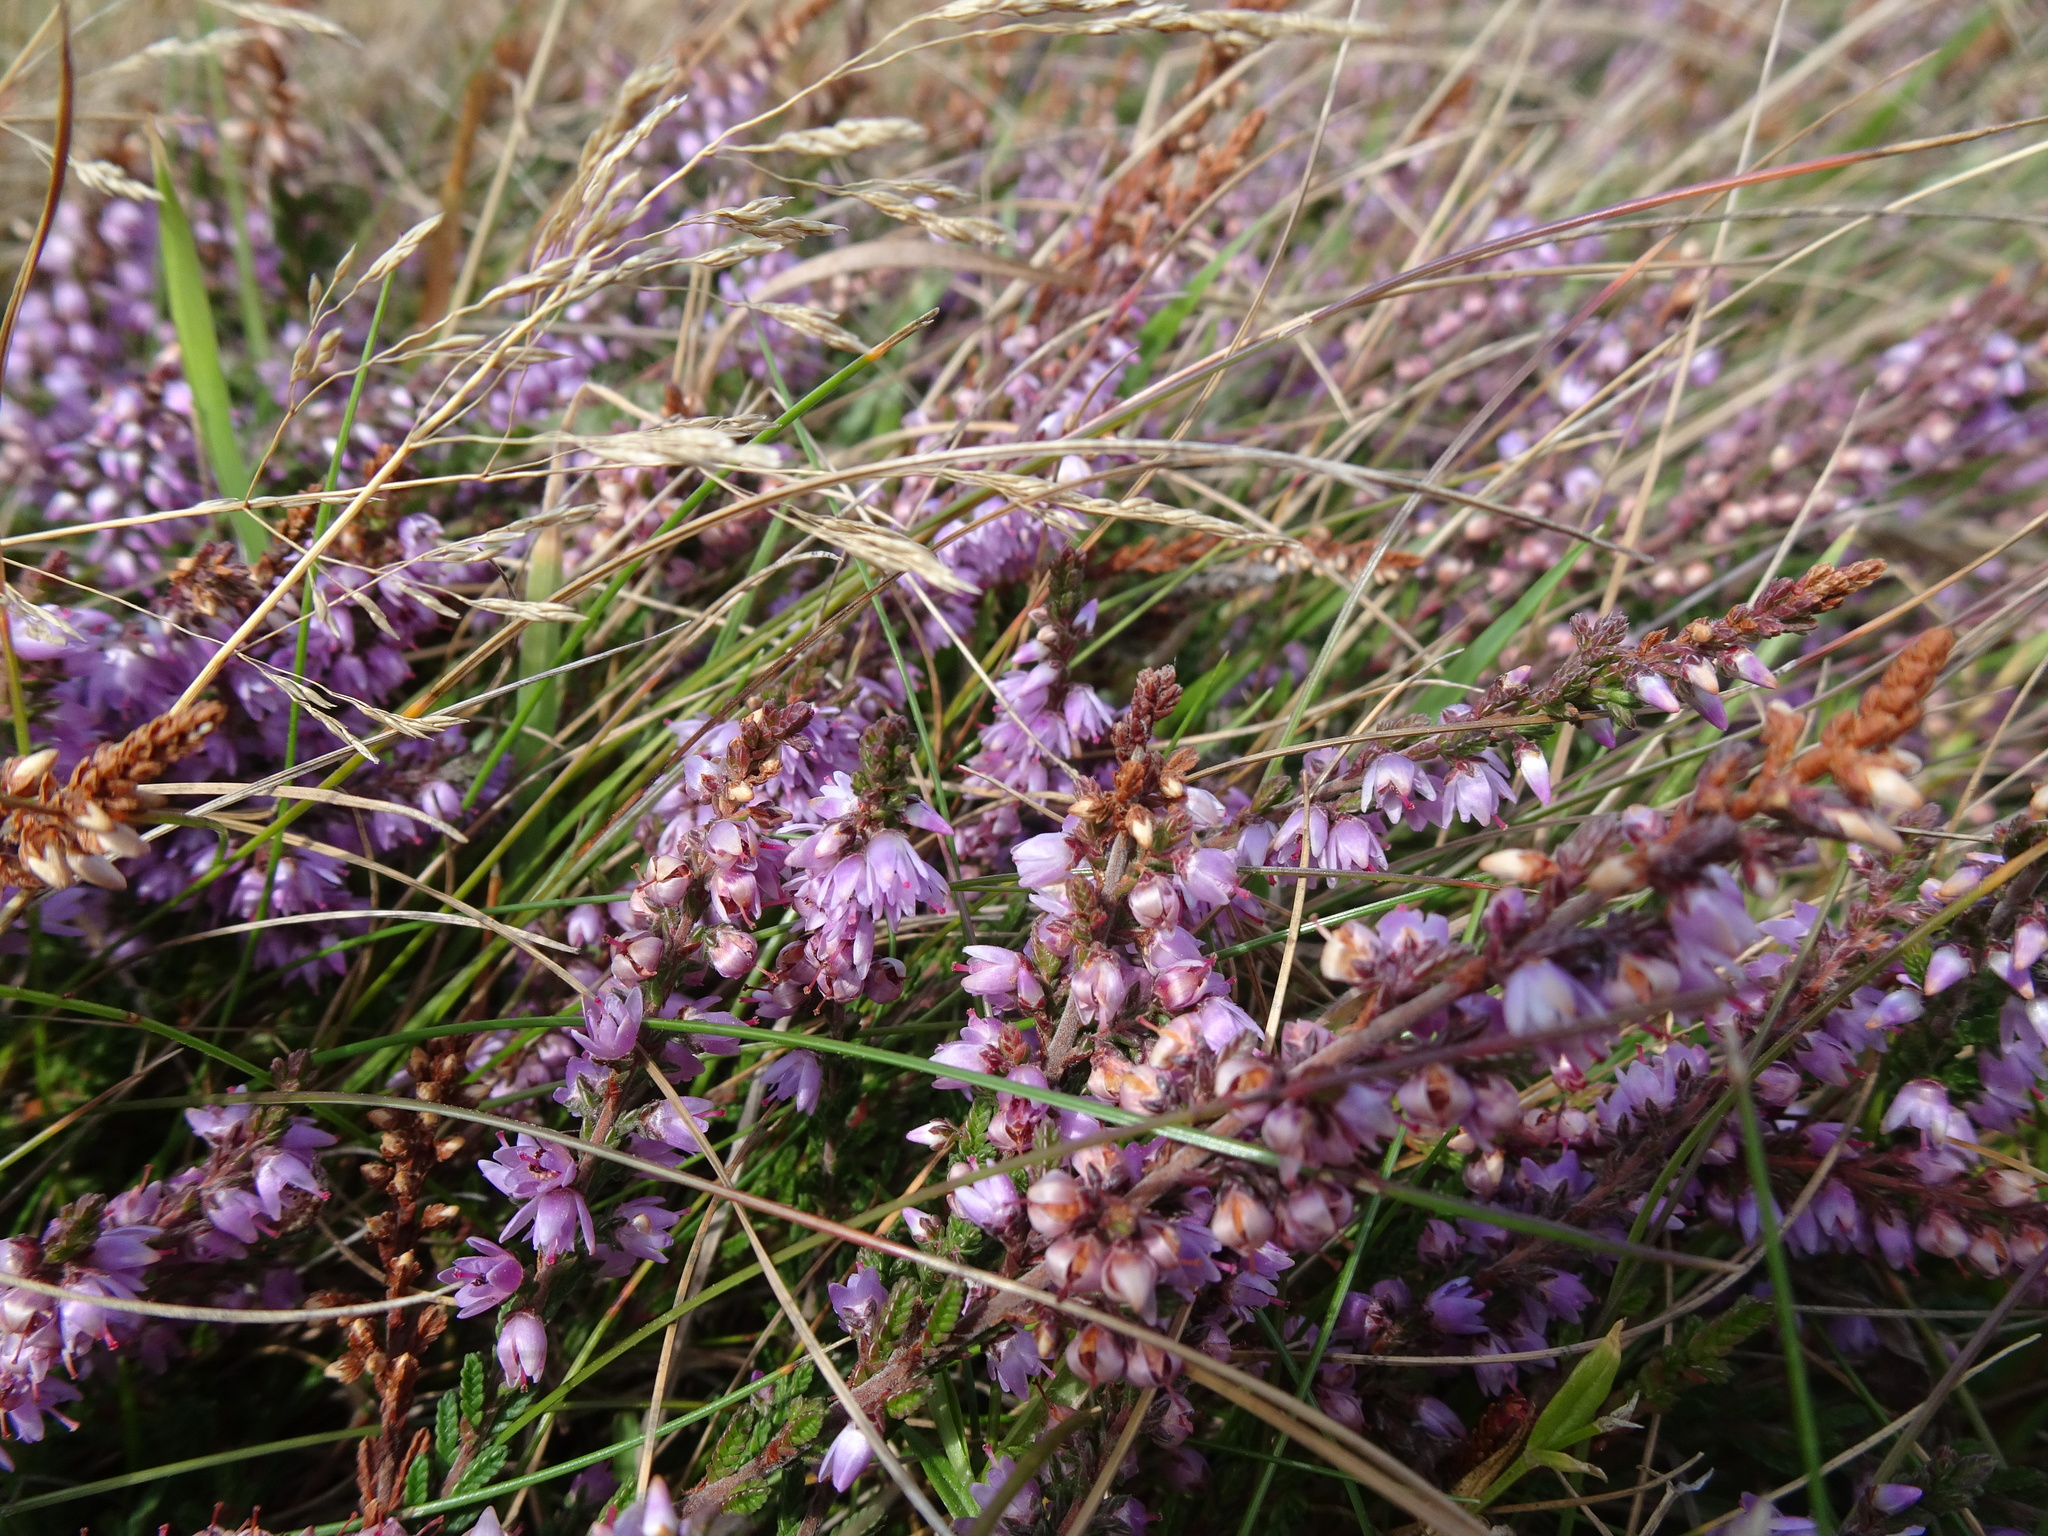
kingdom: Plantae
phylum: Tracheophyta
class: Magnoliopsida
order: Ericales
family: Ericaceae
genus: Calluna
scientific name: Calluna vulgaris
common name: Heather
